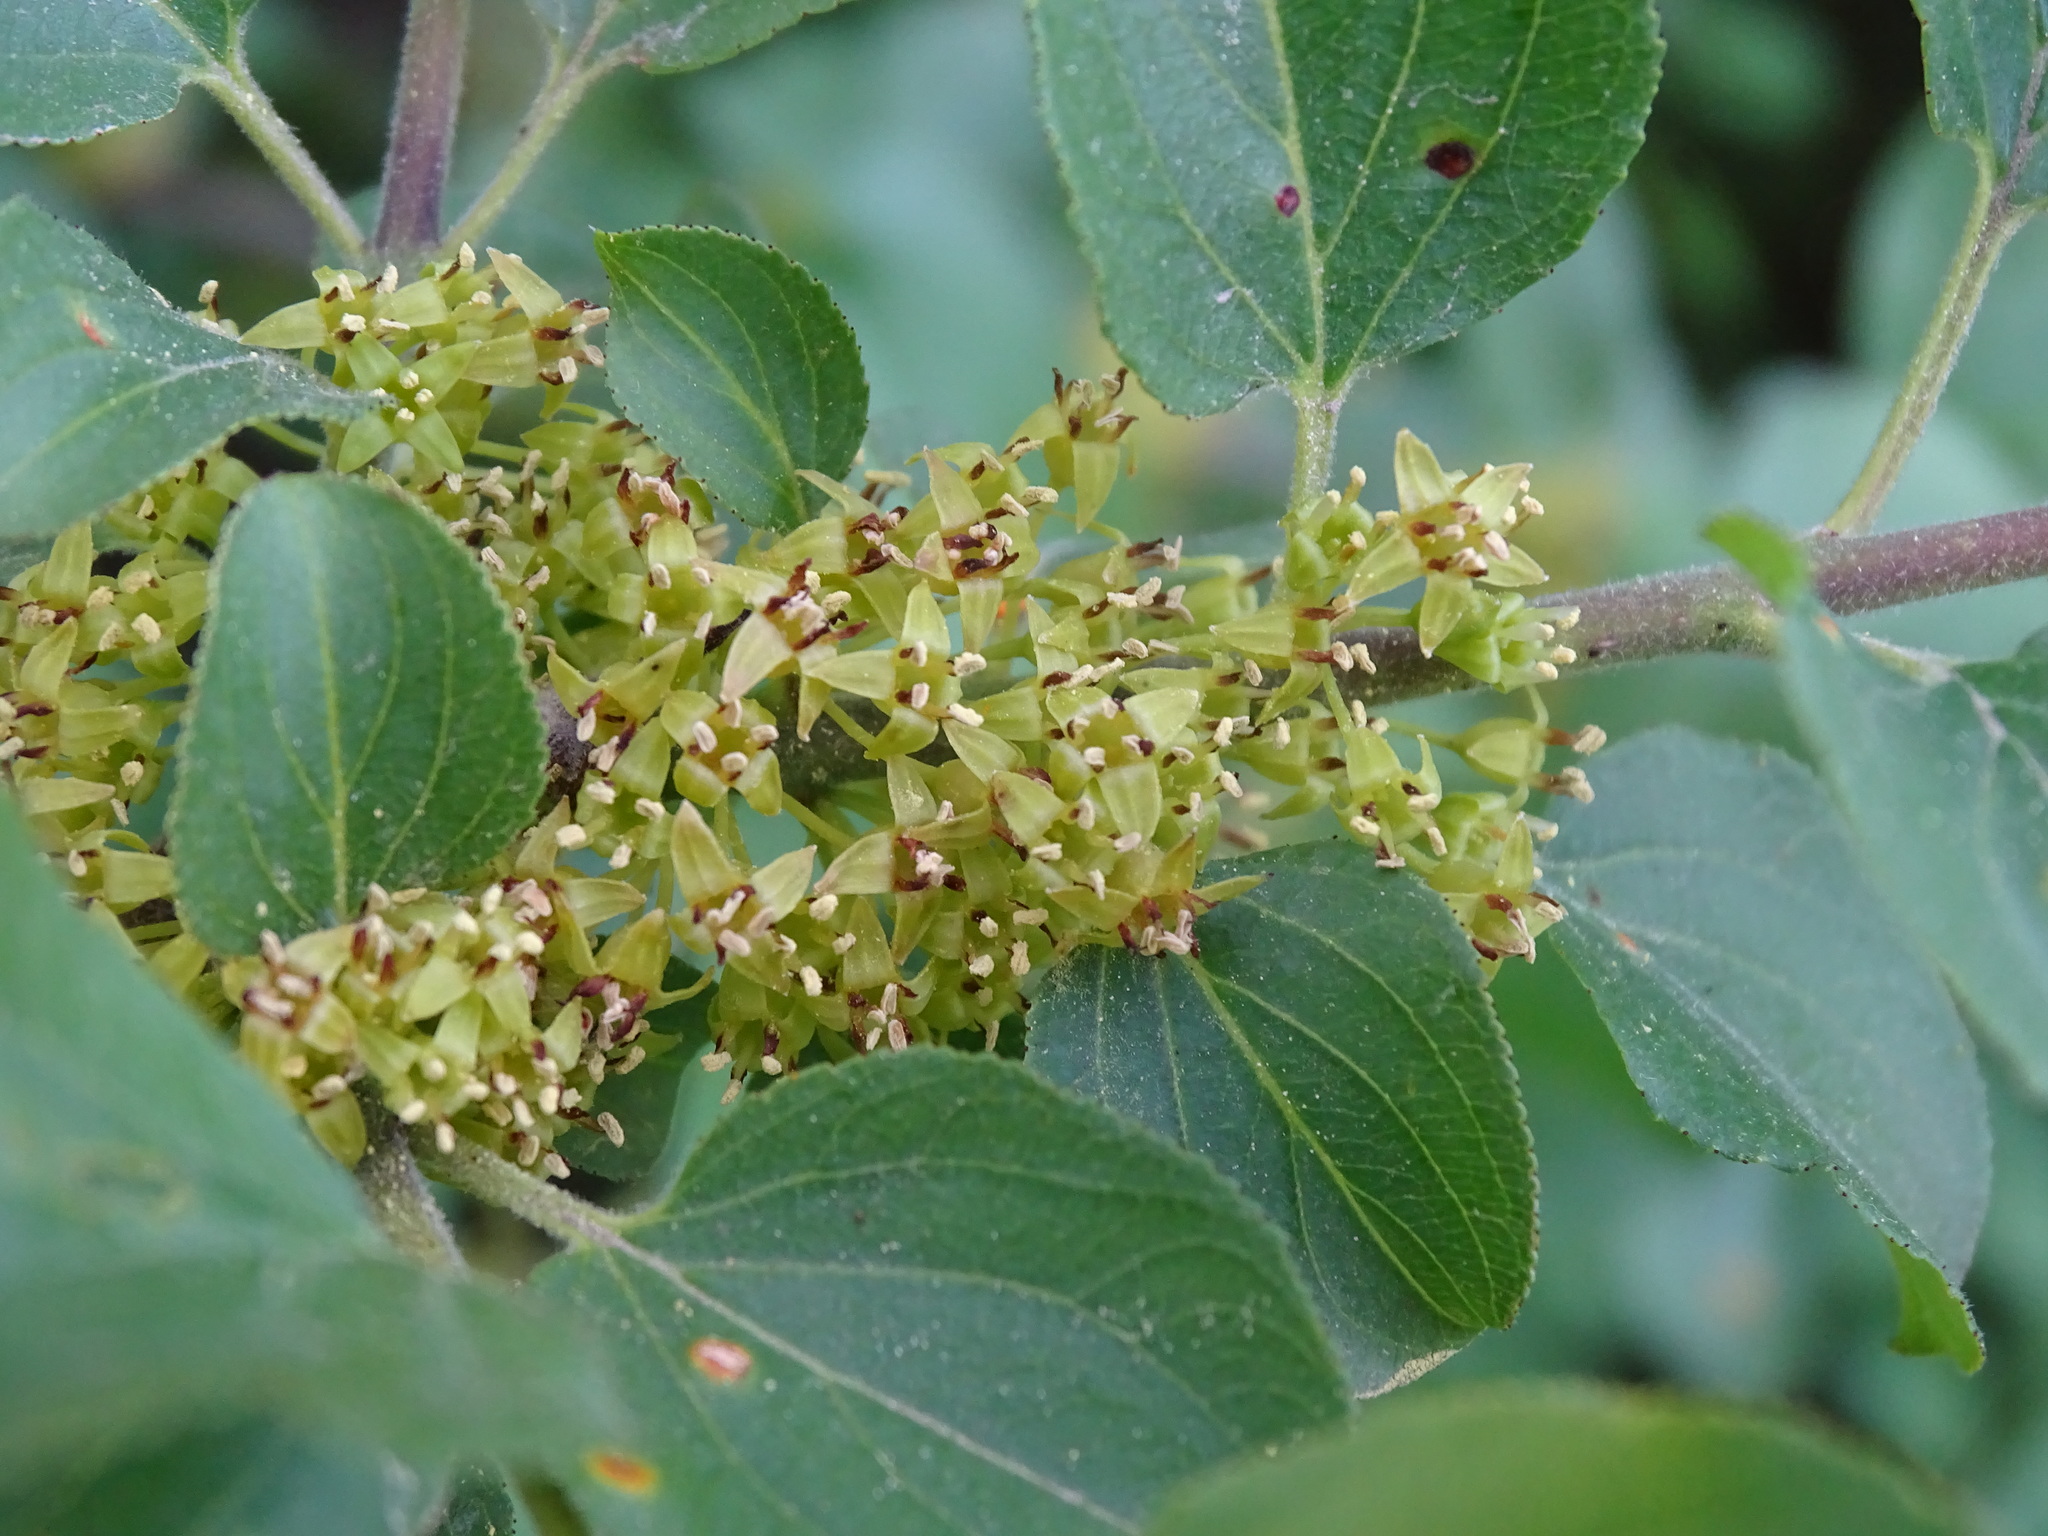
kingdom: Plantae
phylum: Tracheophyta
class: Magnoliopsida
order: Rosales
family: Rhamnaceae
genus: Rhamnus
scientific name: Rhamnus cathartica
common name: Common buckthorn
